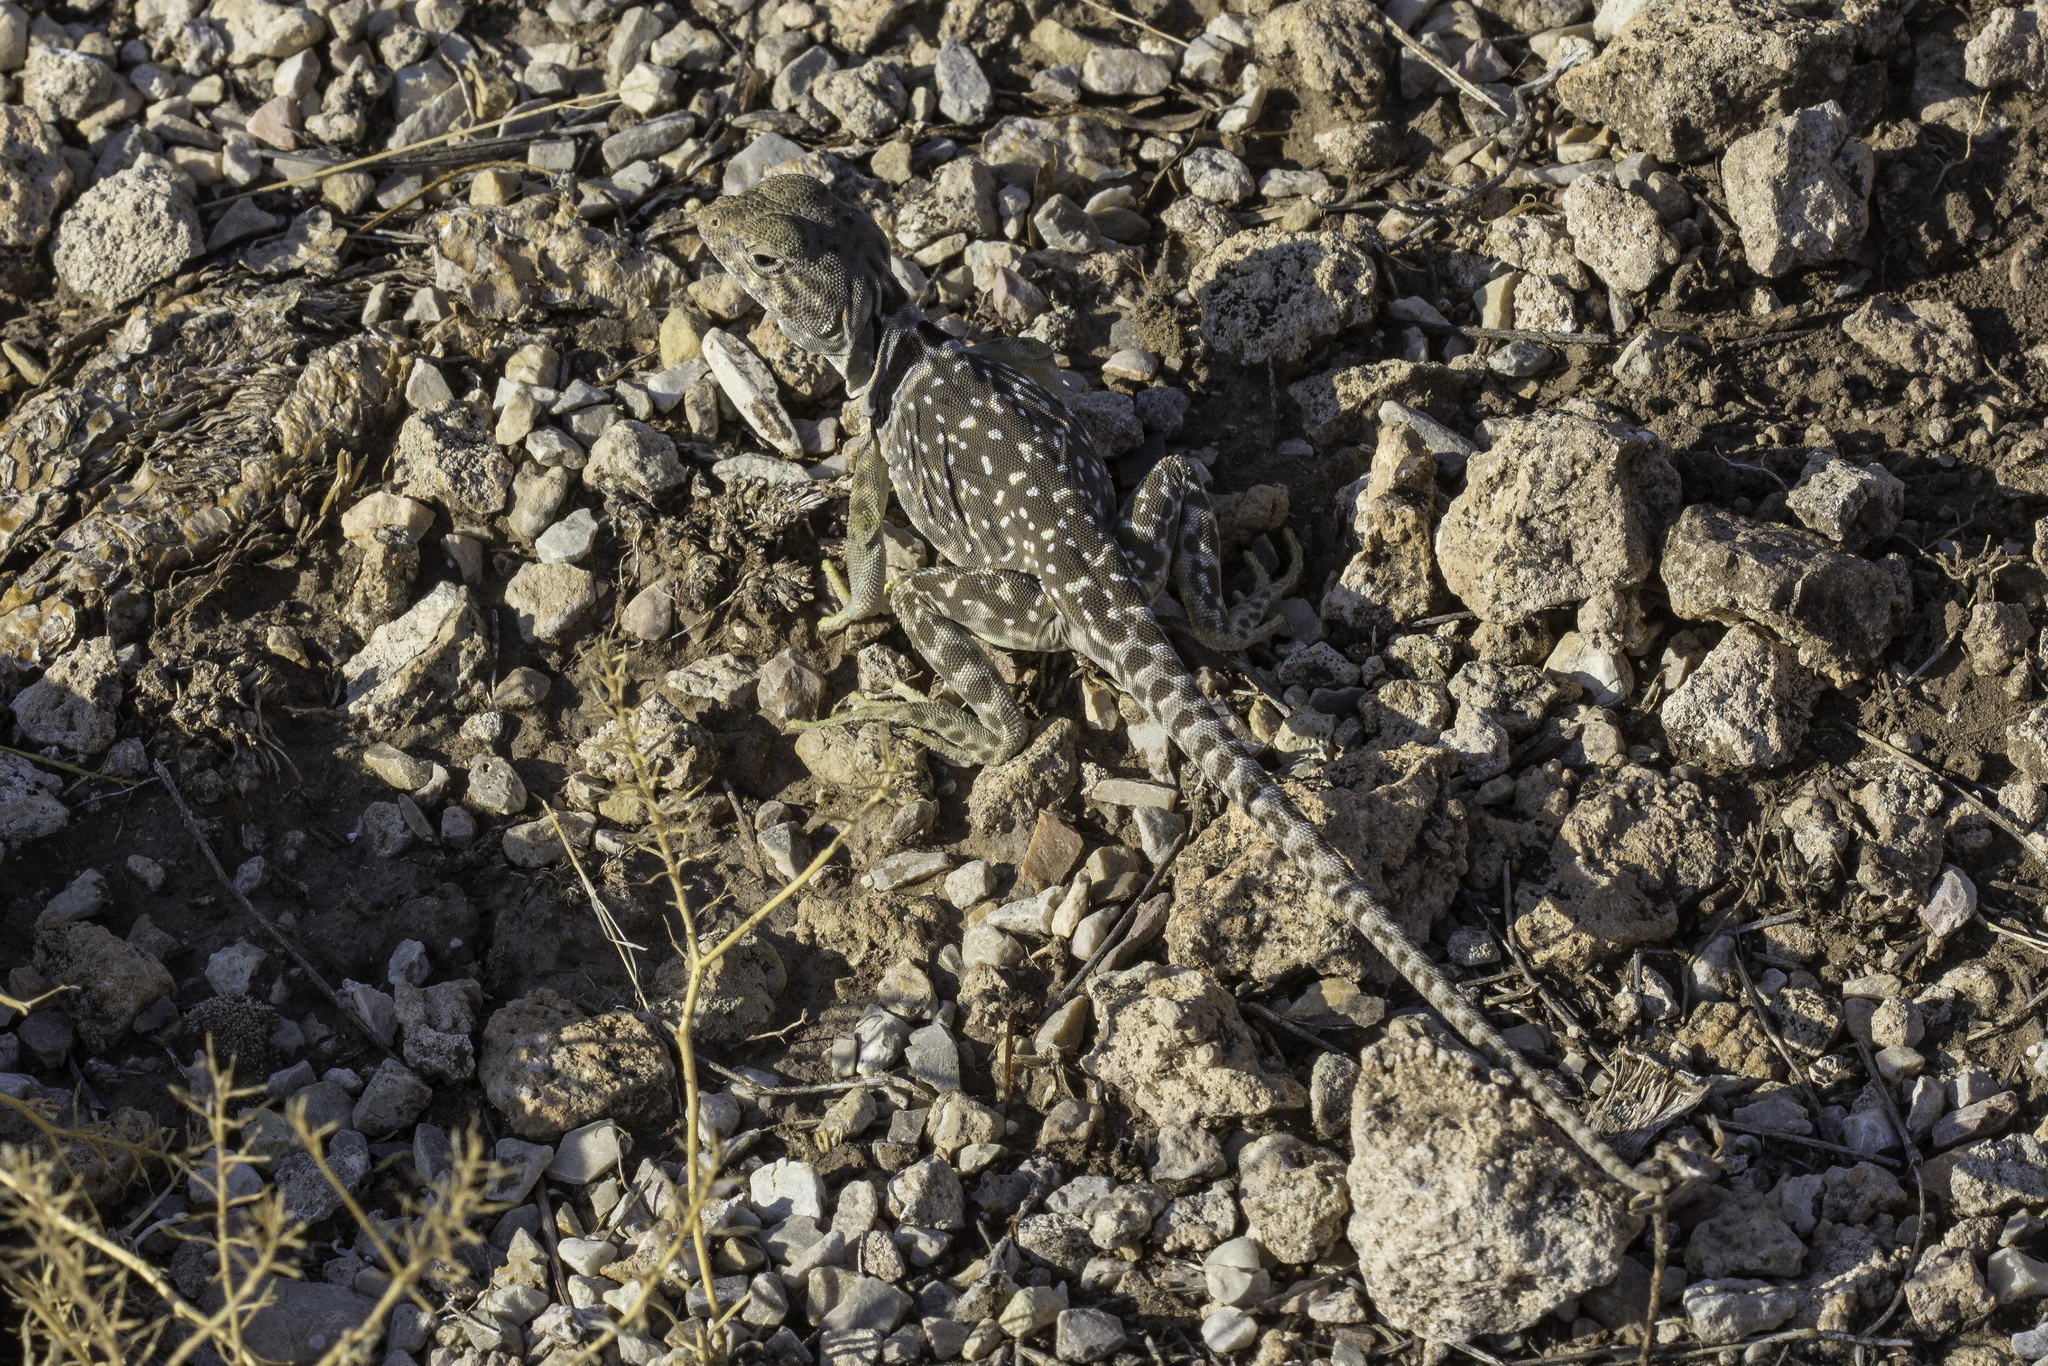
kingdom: Animalia
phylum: Chordata
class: Squamata
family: Crotaphytidae
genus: Crotaphytus
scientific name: Crotaphytus collaris
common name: Collared lizard
